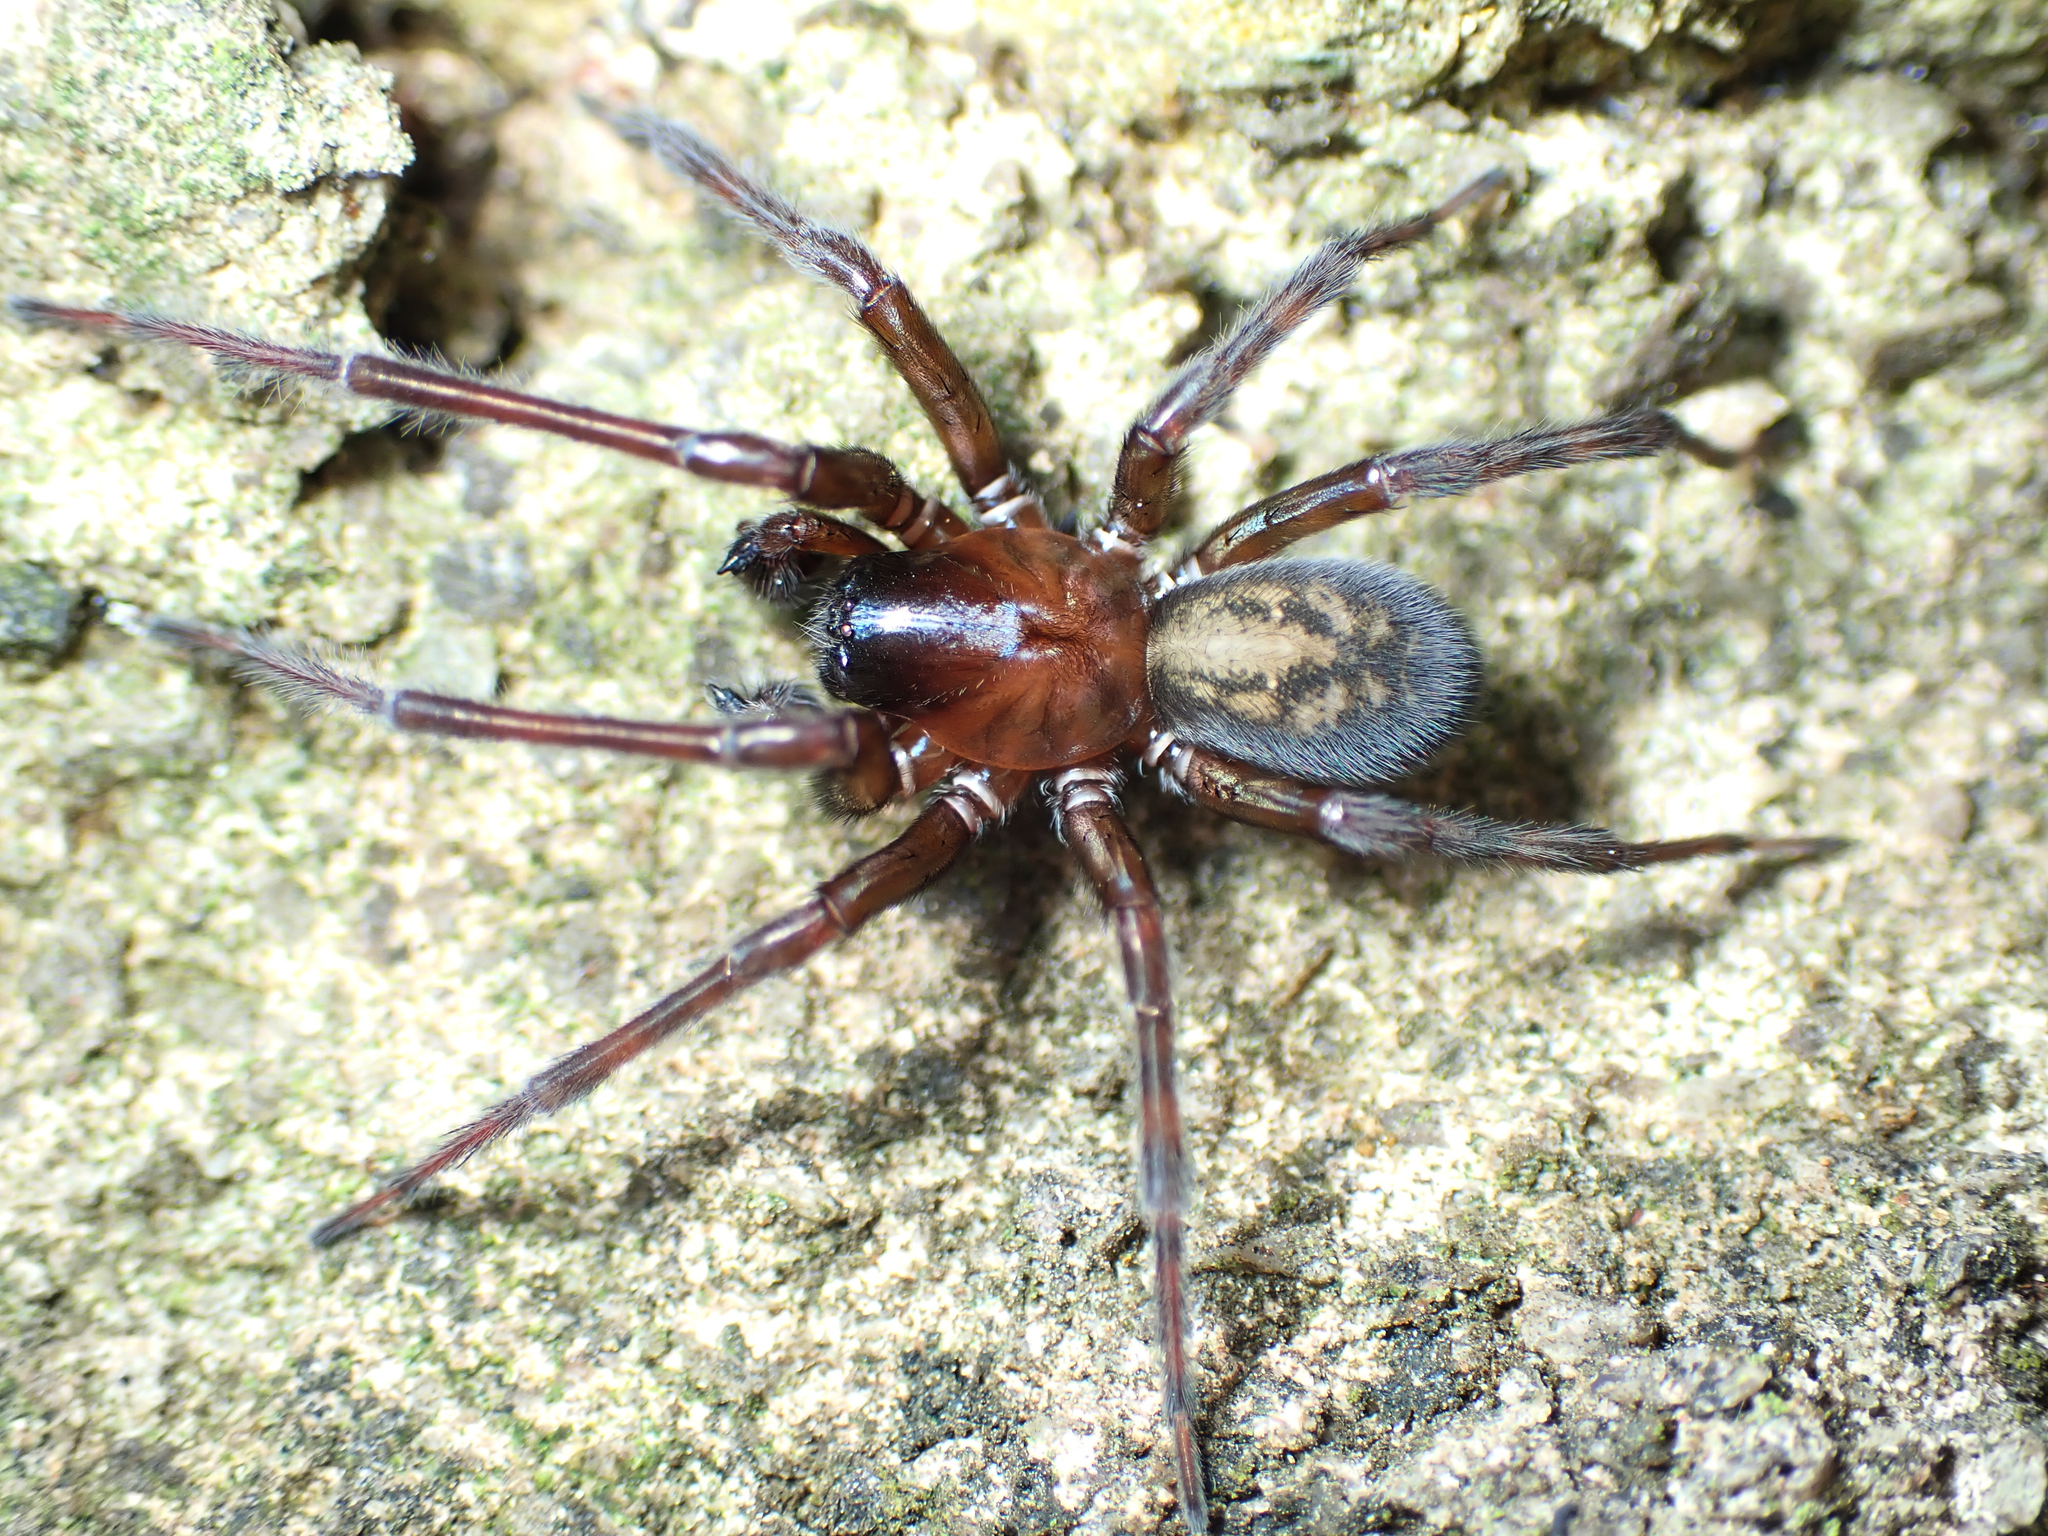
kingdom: Animalia
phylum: Arthropoda
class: Arachnida
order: Araneae
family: Amaurobiidae
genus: Amaurobius
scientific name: Amaurobius ferox
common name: Black laceweaver
